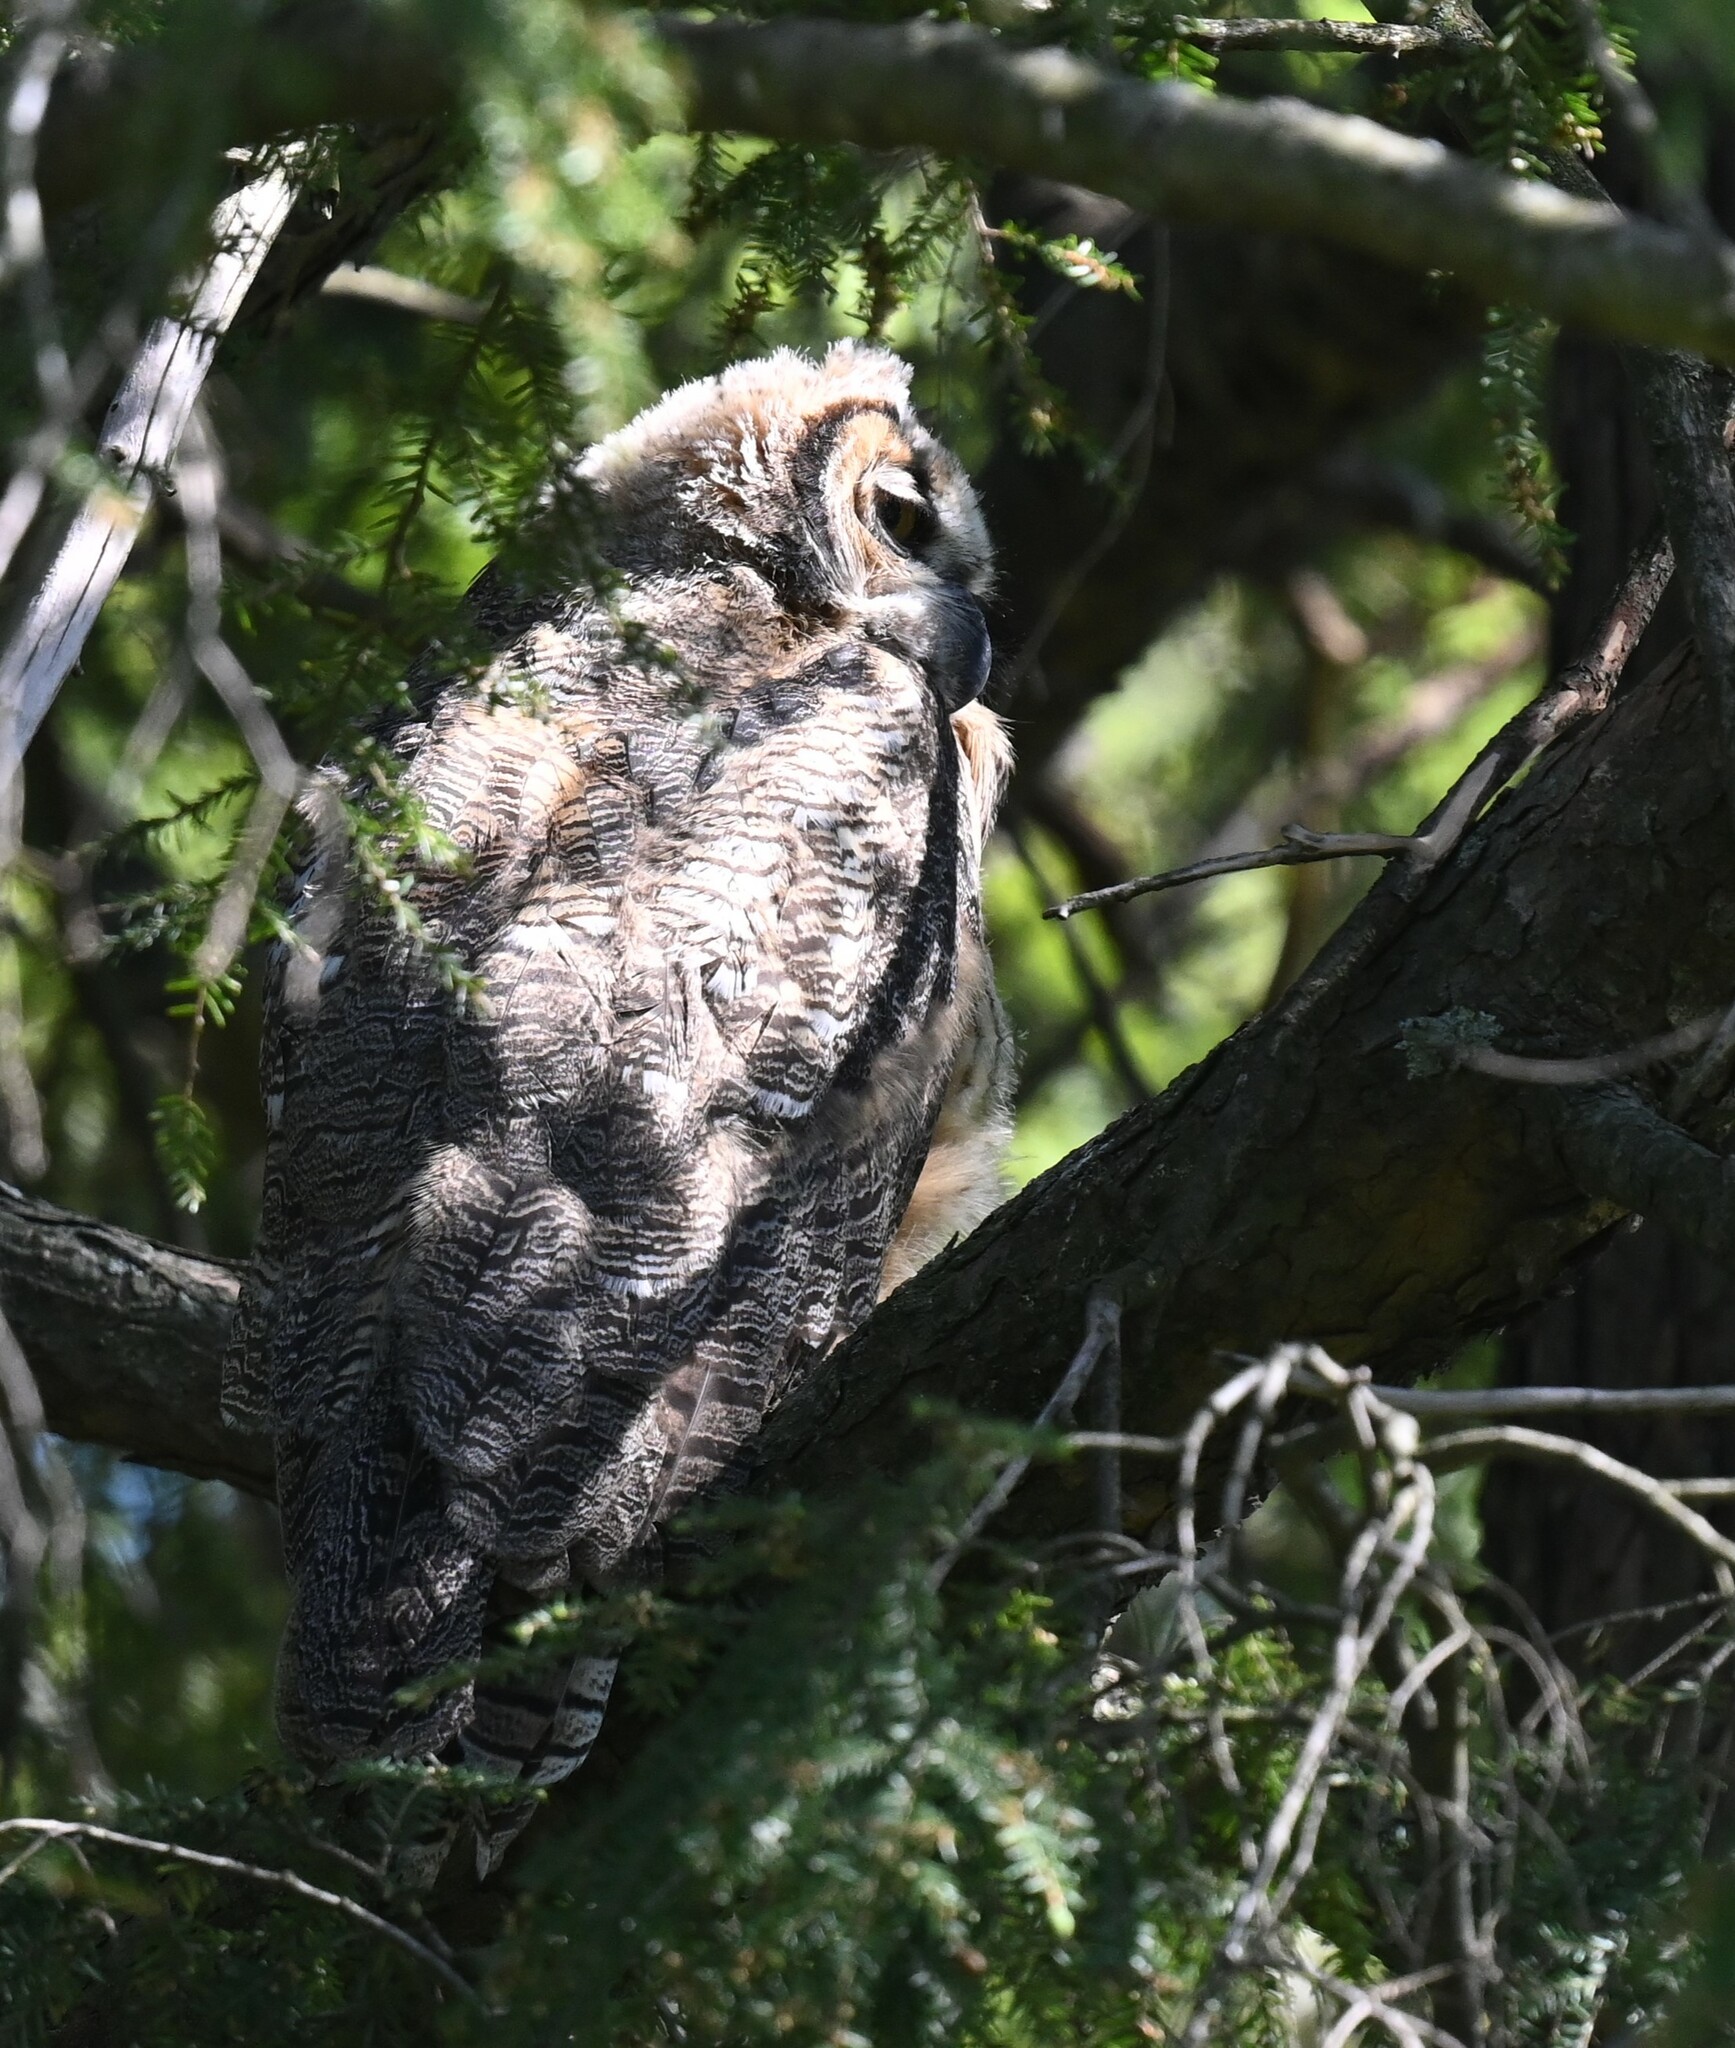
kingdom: Animalia
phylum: Chordata
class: Aves
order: Strigiformes
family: Strigidae
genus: Bubo
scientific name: Bubo virginianus
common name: Great horned owl
